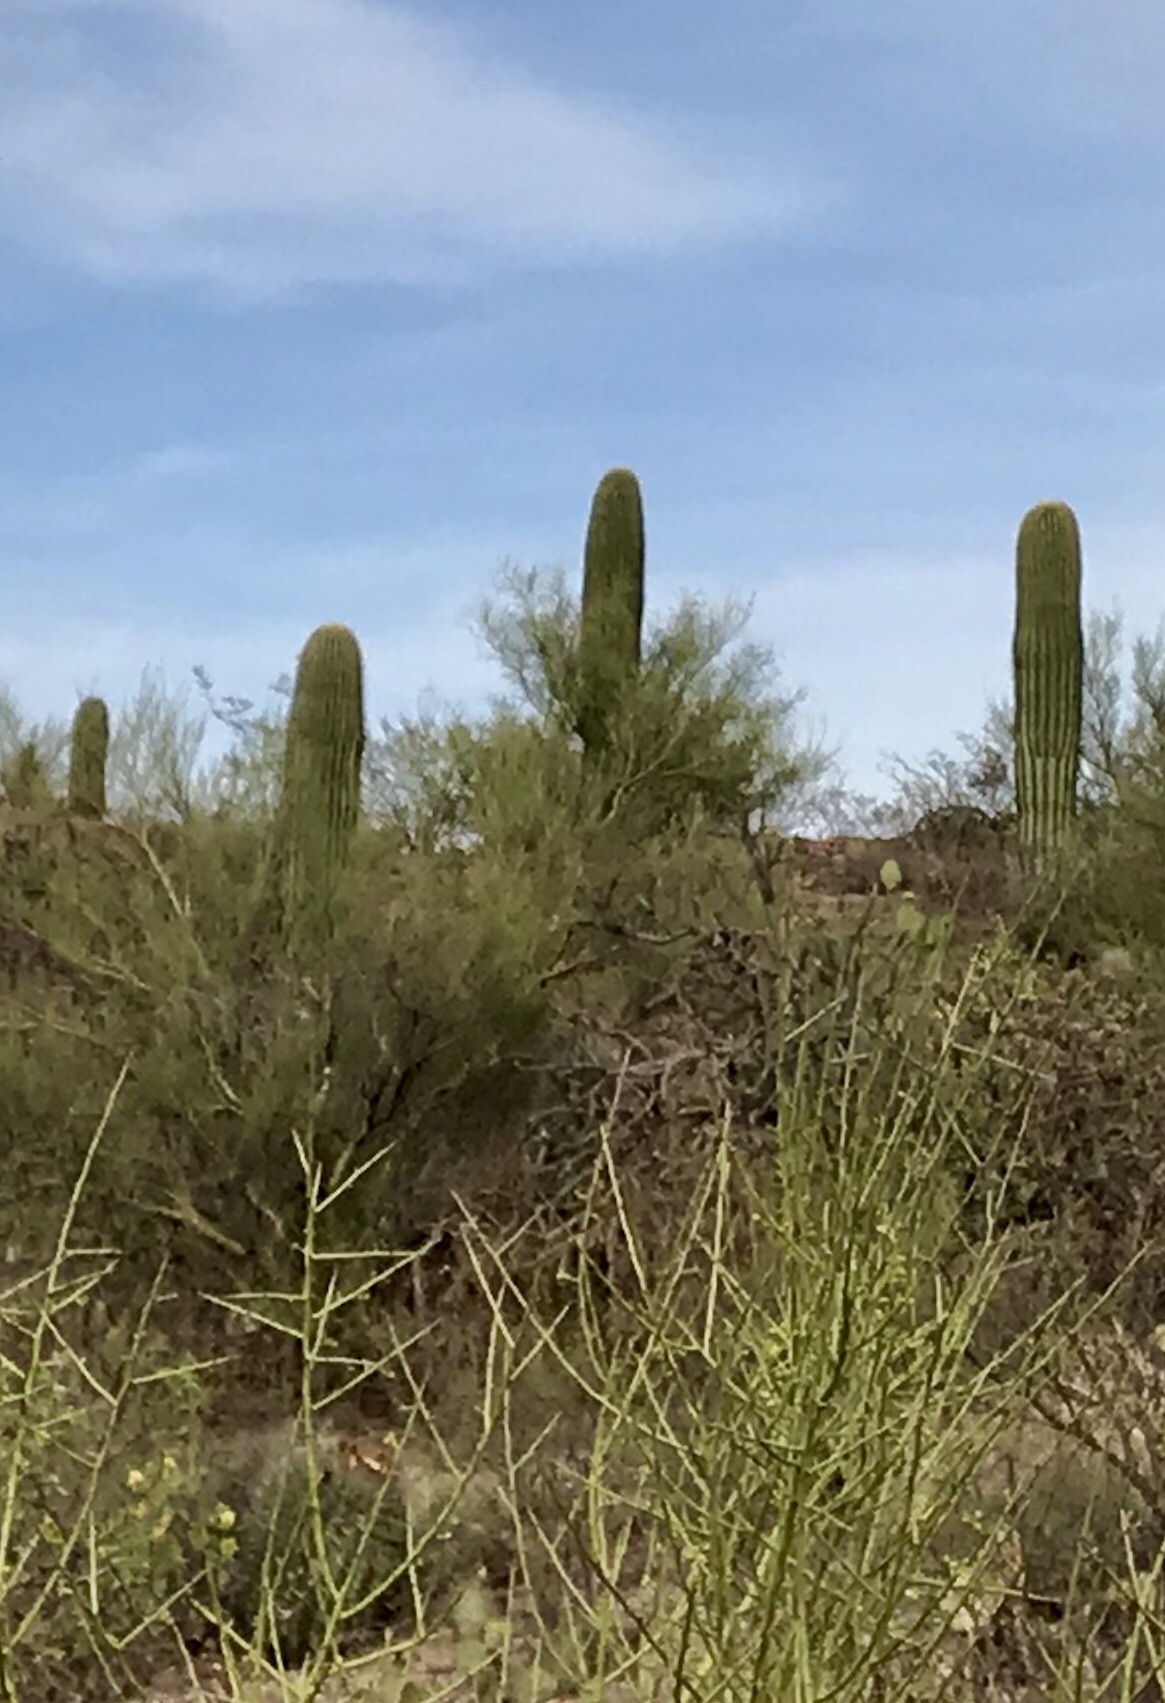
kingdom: Plantae
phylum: Tracheophyta
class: Magnoliopsida
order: Caryophyllales
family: Cactaceae
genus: Carnegiea
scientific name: Carnegiea gigantea
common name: Saguaro
